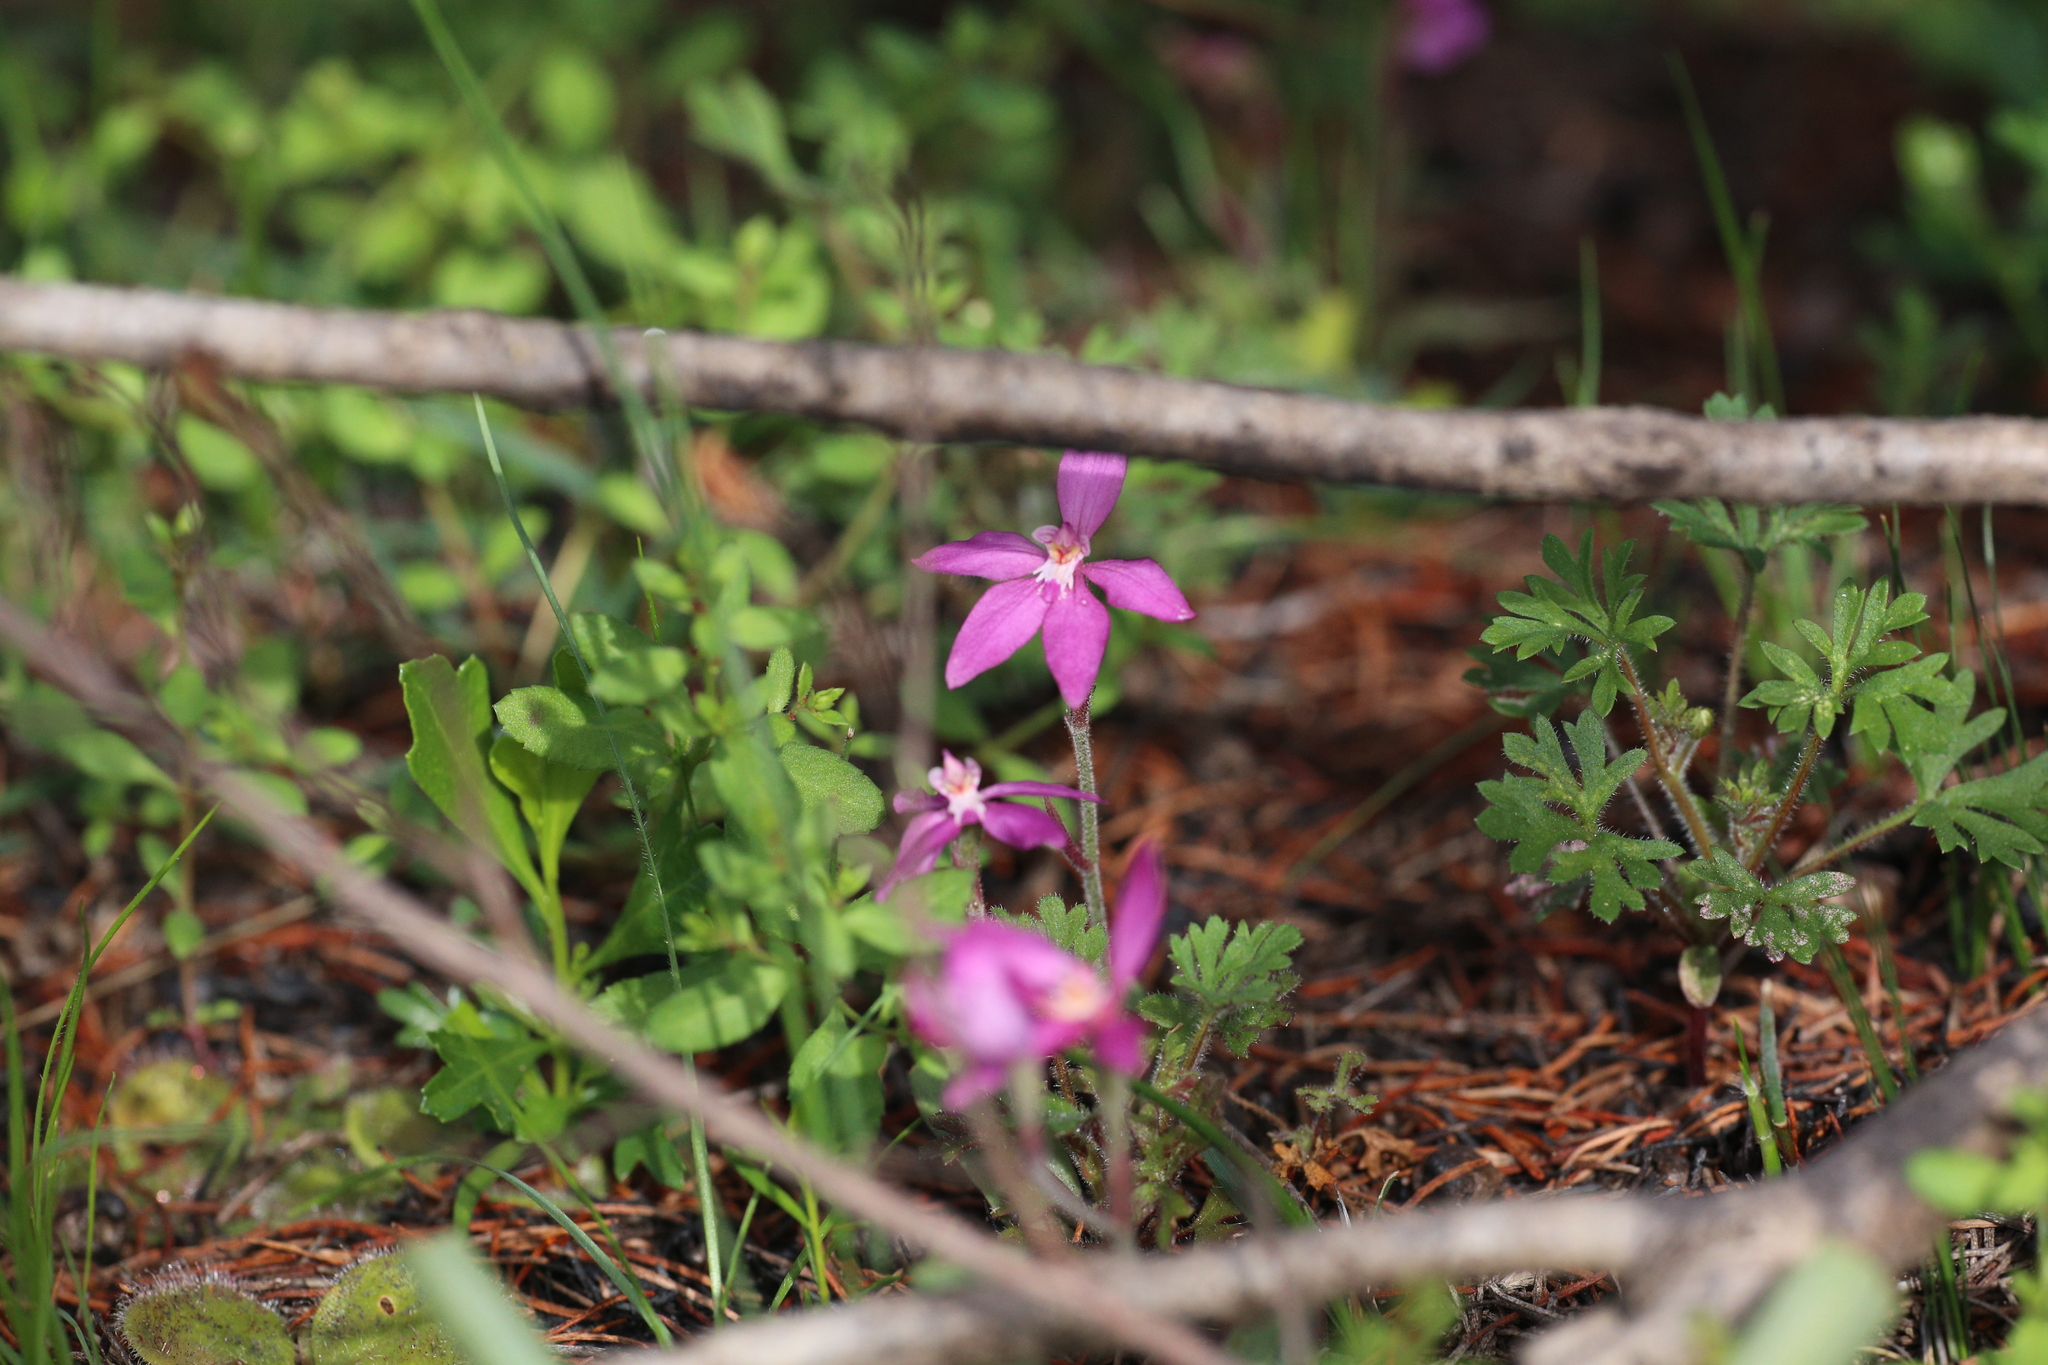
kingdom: Plantae
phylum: Tracheophyta
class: Liliopsida
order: Asparagales
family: Orchidaceae
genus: Caladenia
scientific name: Caladenia reptans
